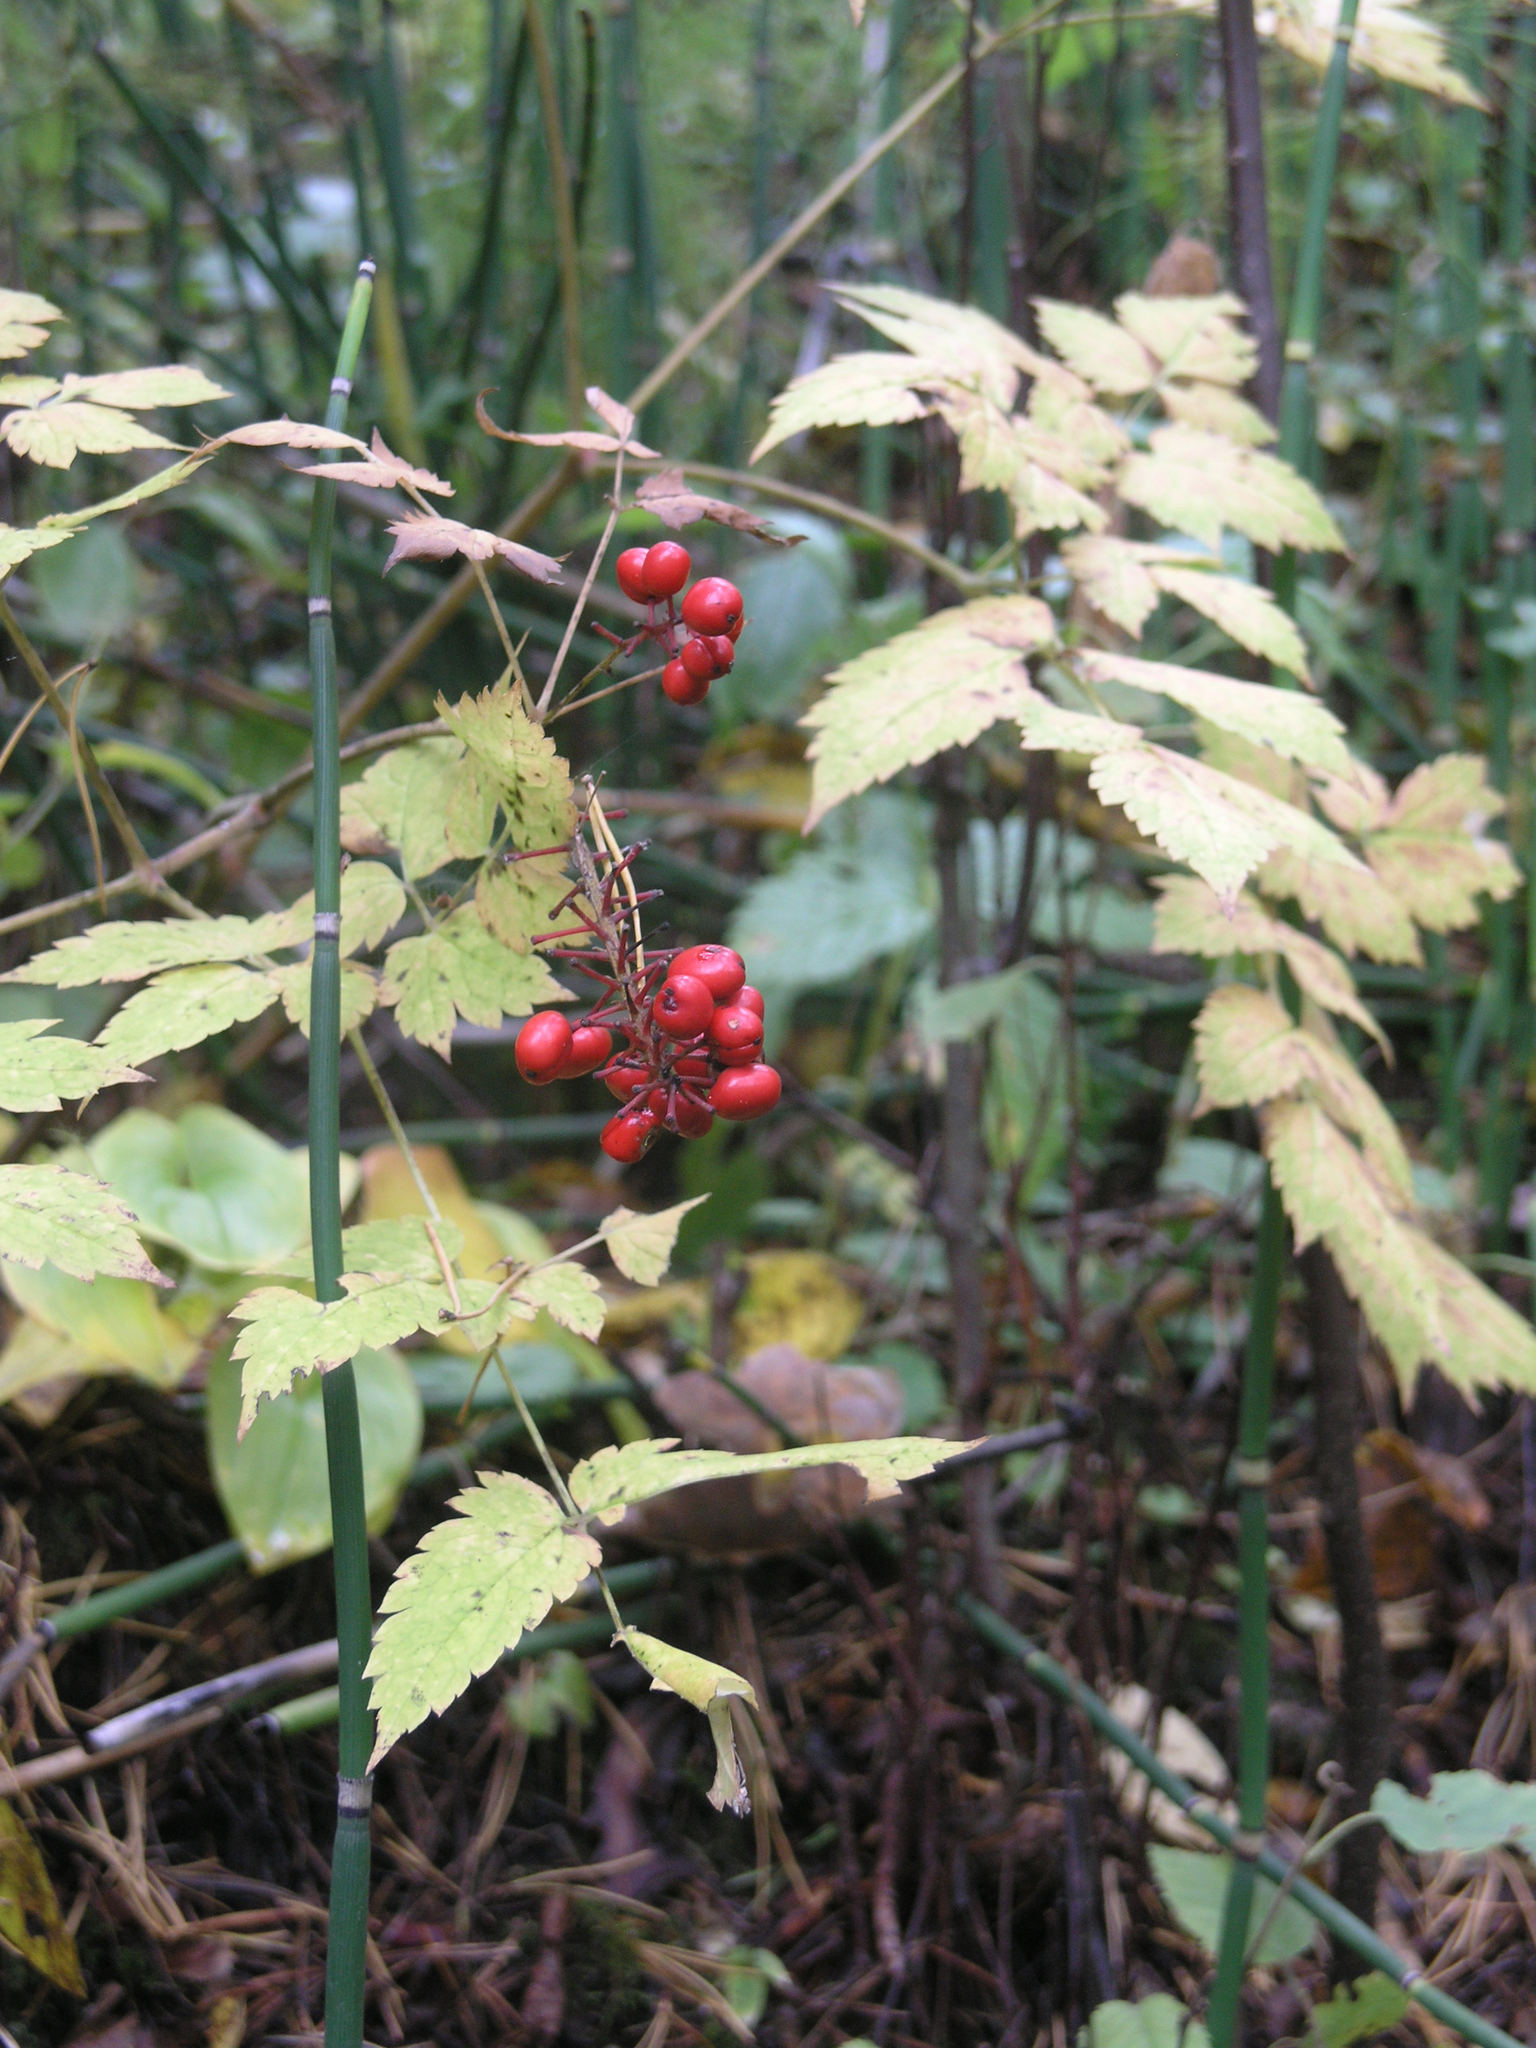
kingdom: Plantae
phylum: Tracheophyta
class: Magnoliopsida
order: Ranunculales
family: Ranunculaceae
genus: Actaea
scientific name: Actaea erythrocarpa
